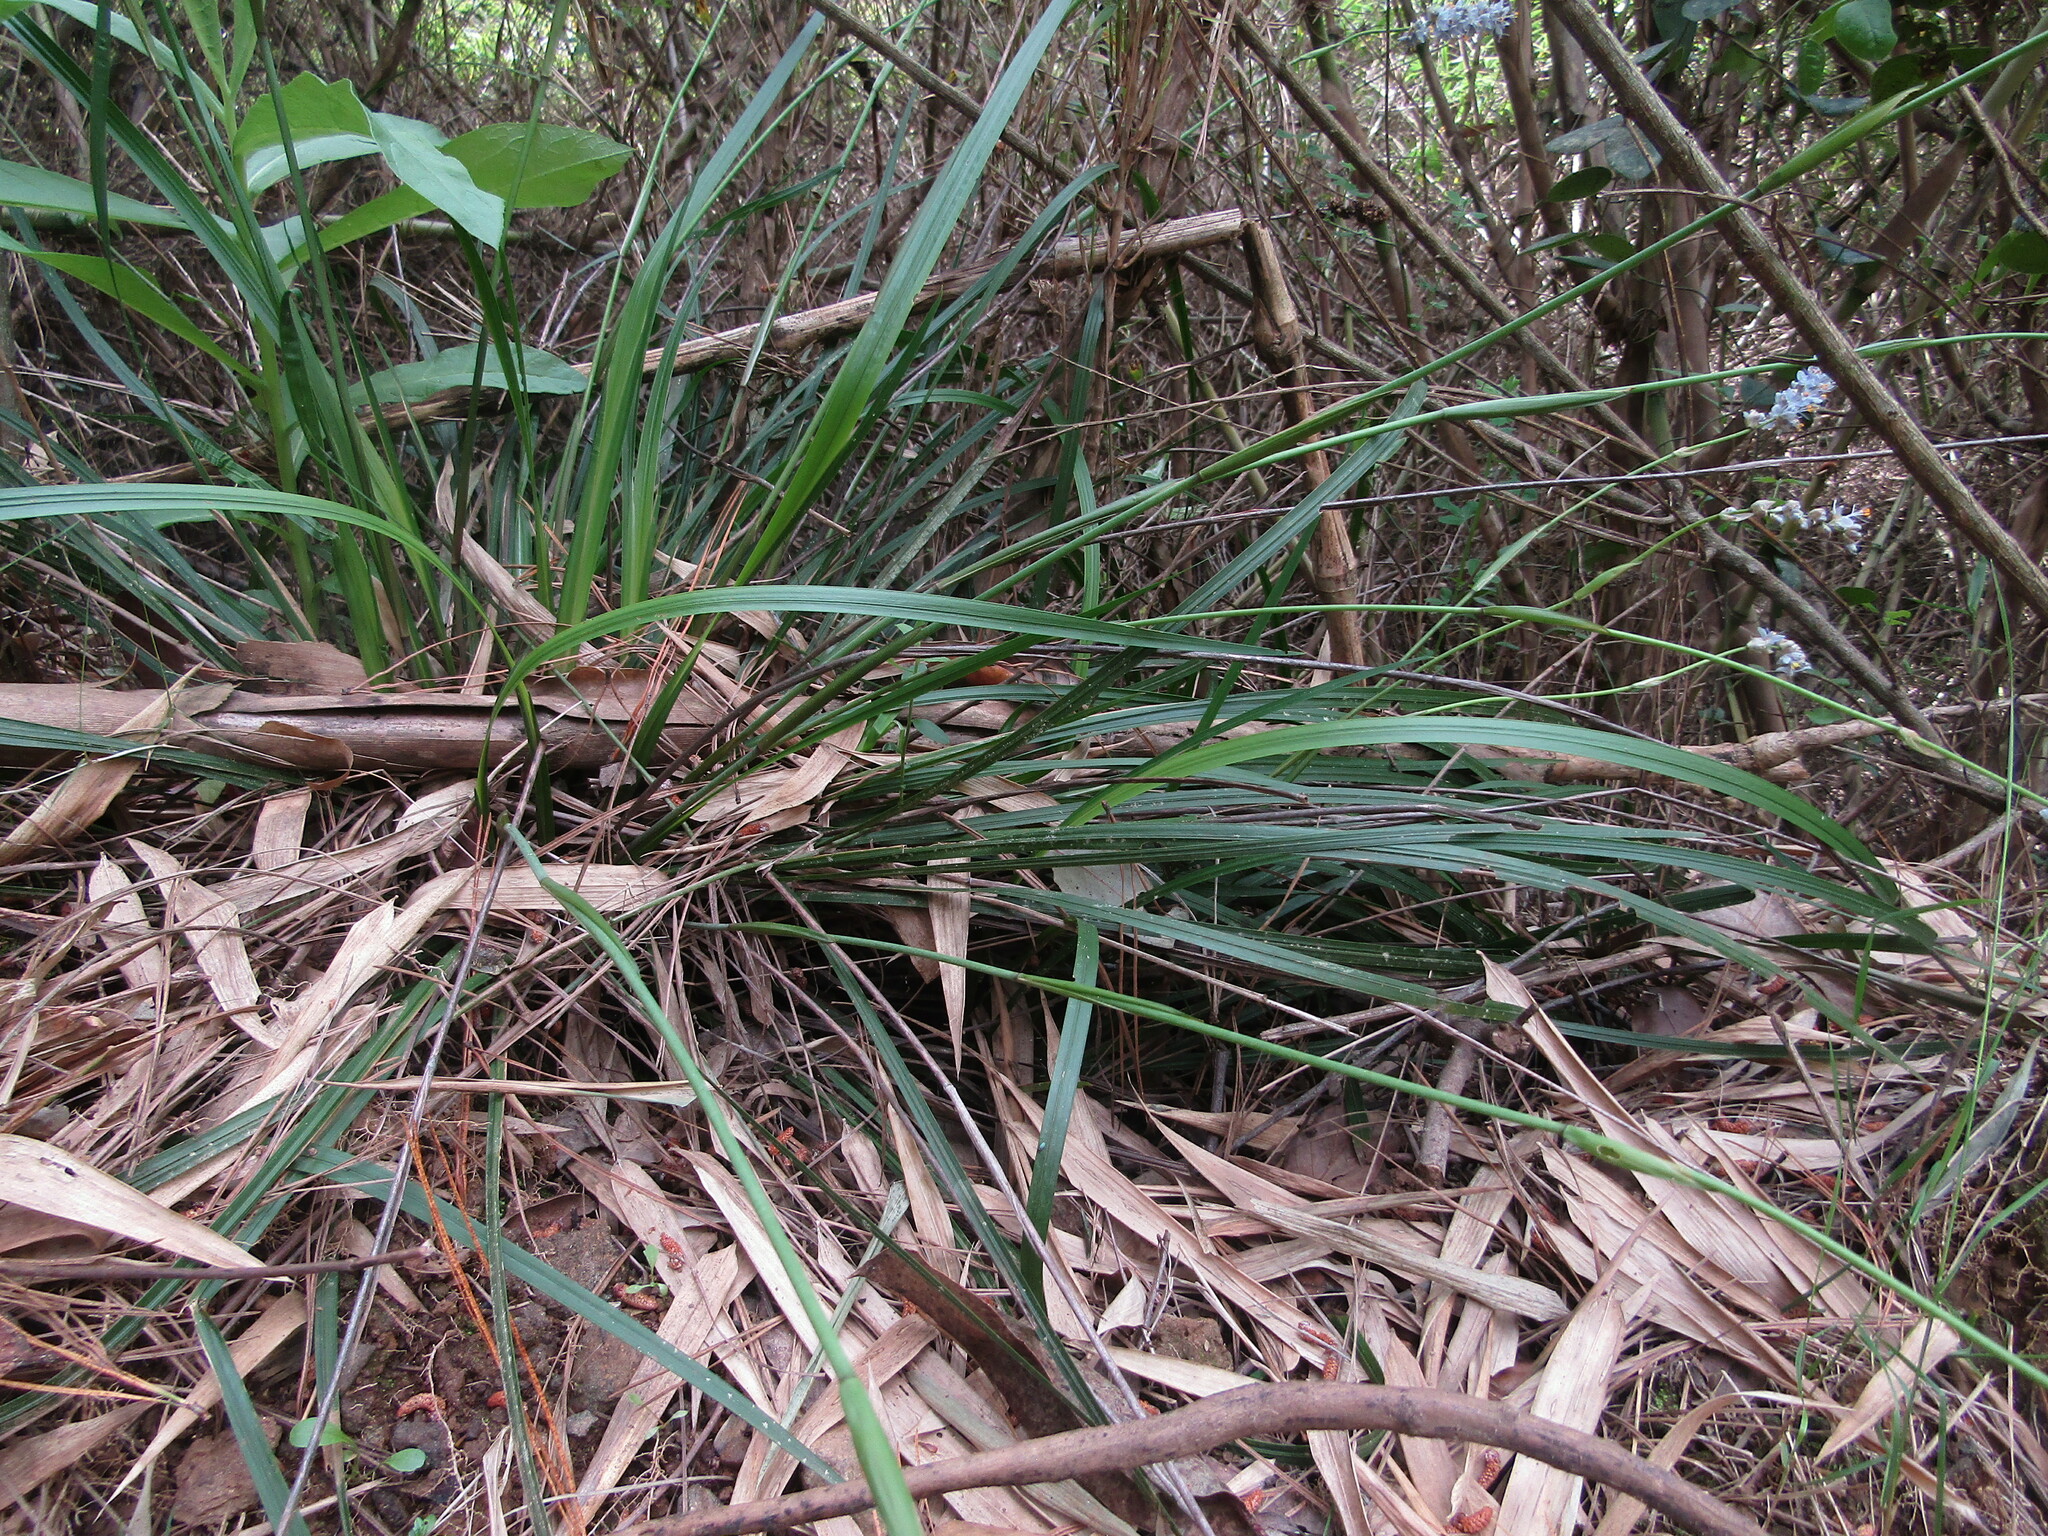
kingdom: Plantae
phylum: Tracheophyta
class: Liliopsida
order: Asparagales
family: Iridaceae
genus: Libertia
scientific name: Libertia sessiliflora
